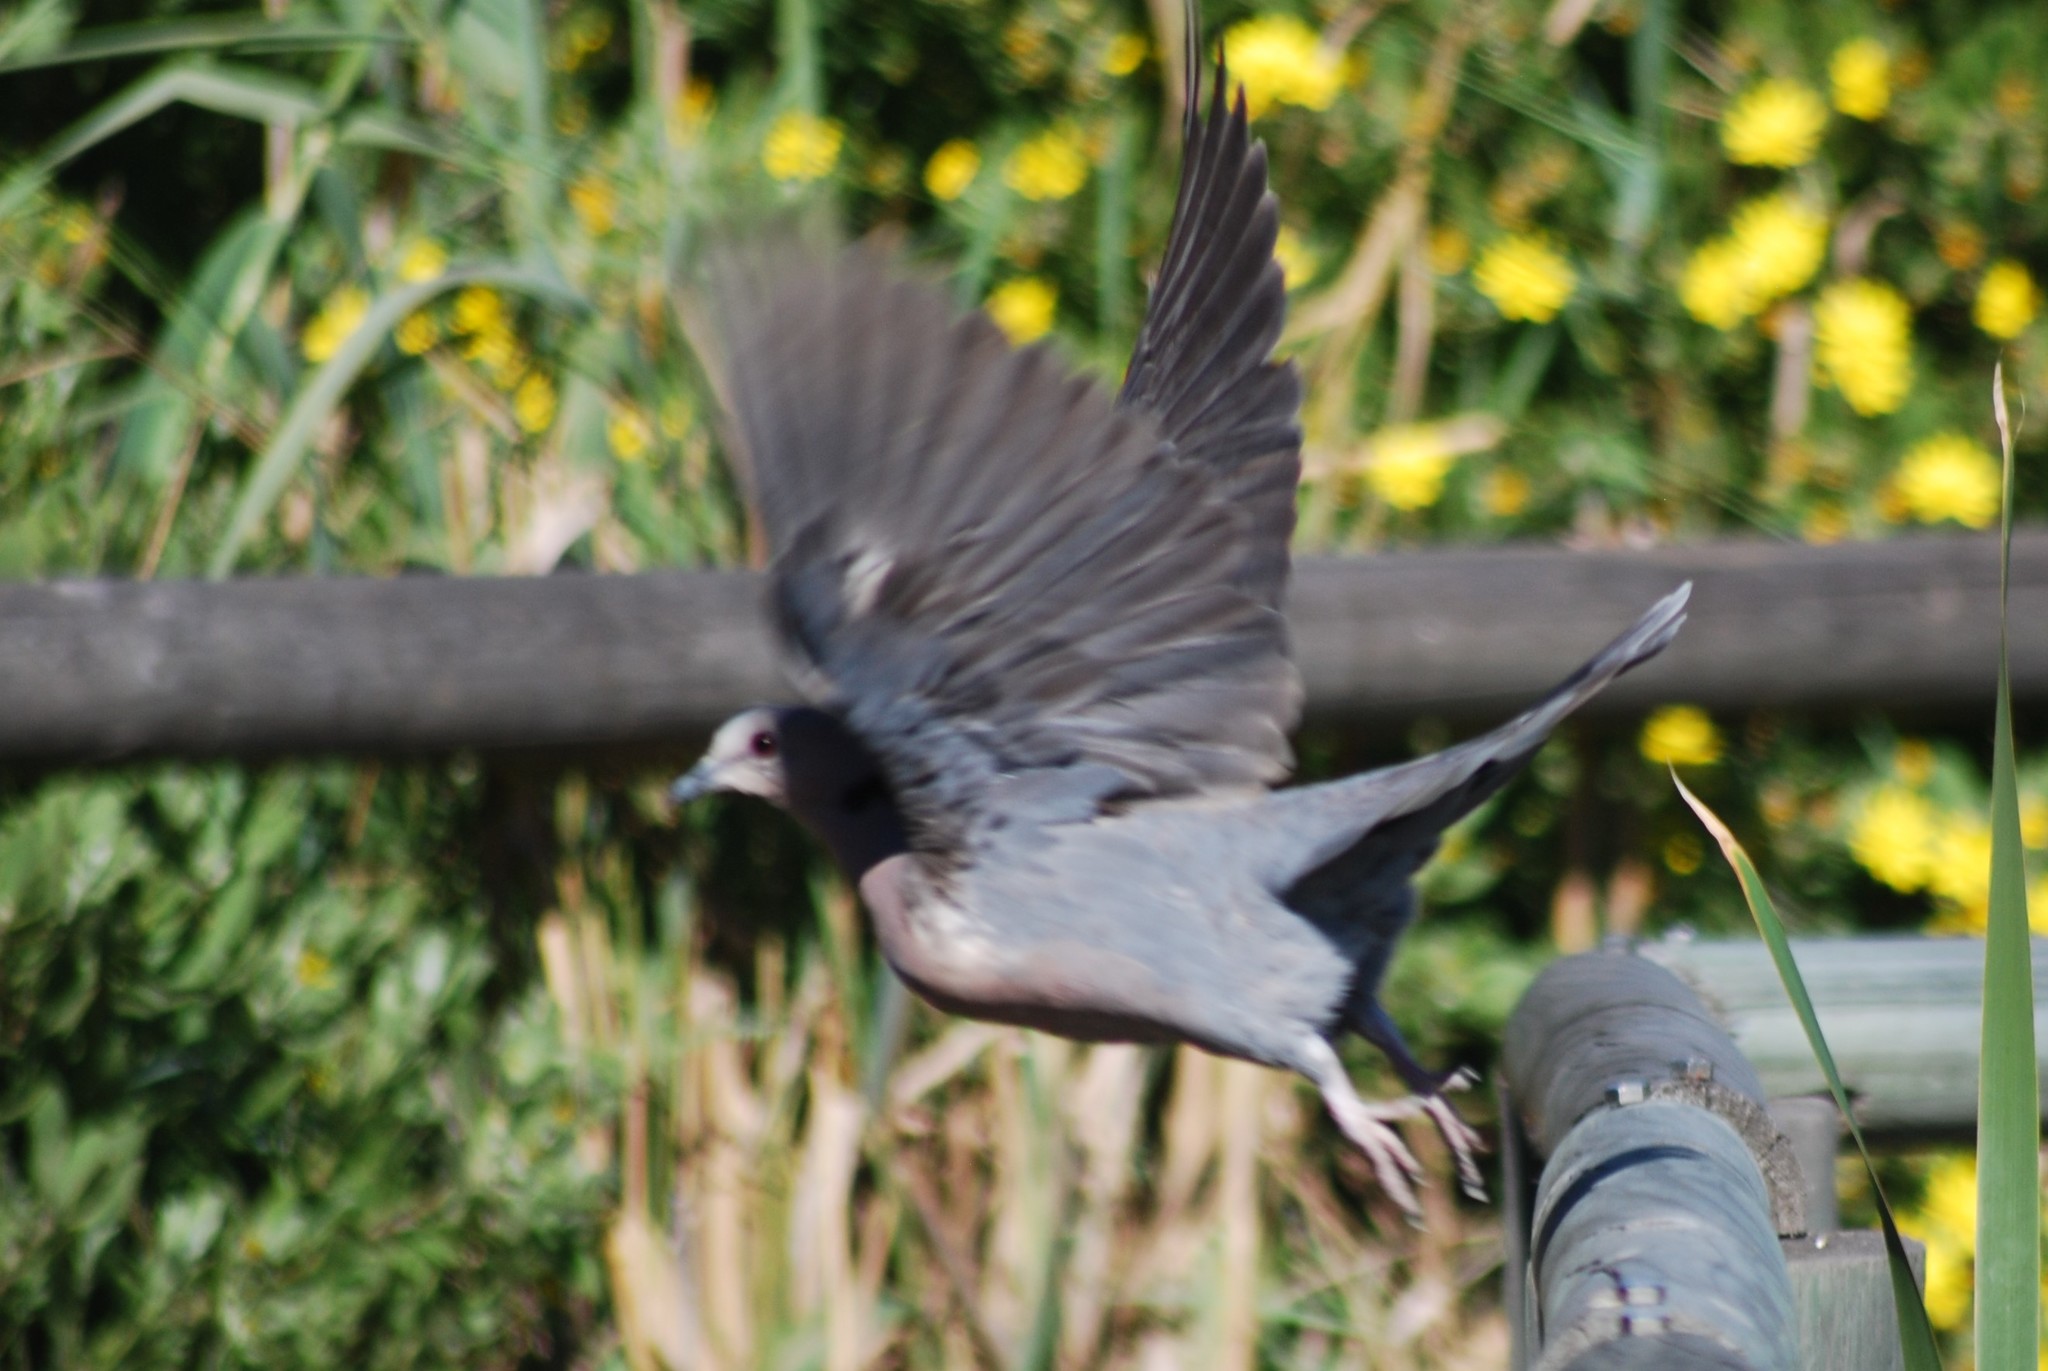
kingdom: Animalia
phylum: Chordata
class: Aves
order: Columbiformes
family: Columbidae
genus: Streptopelia
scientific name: Streptopelia semitorquata
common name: Red-eyed dove
